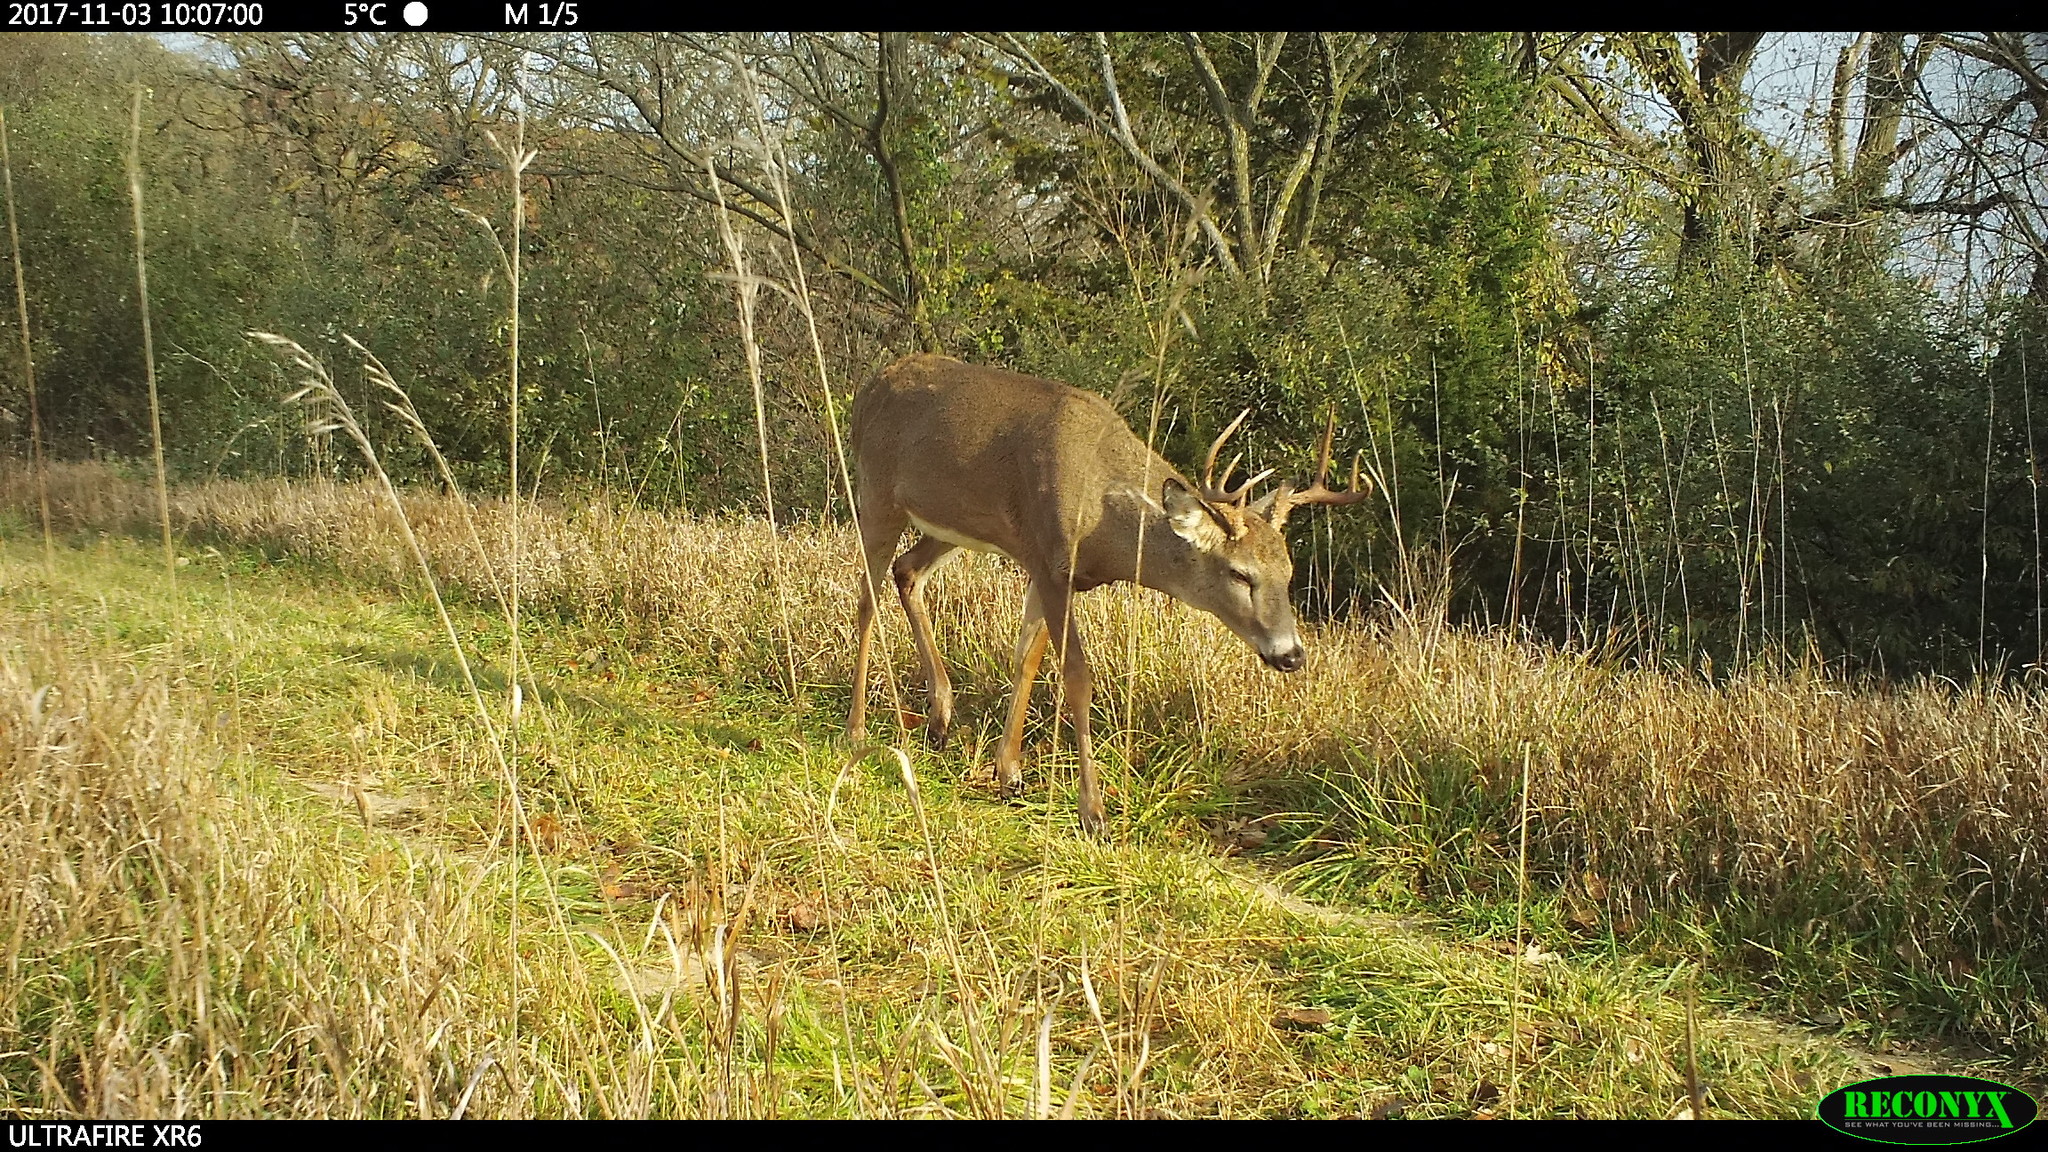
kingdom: Animalia
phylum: Chordata
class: Mammalia
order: Artiodactyla
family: Cervidae
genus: Odocoileus
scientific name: Odocoileus virginianus
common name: White-tailed deer
